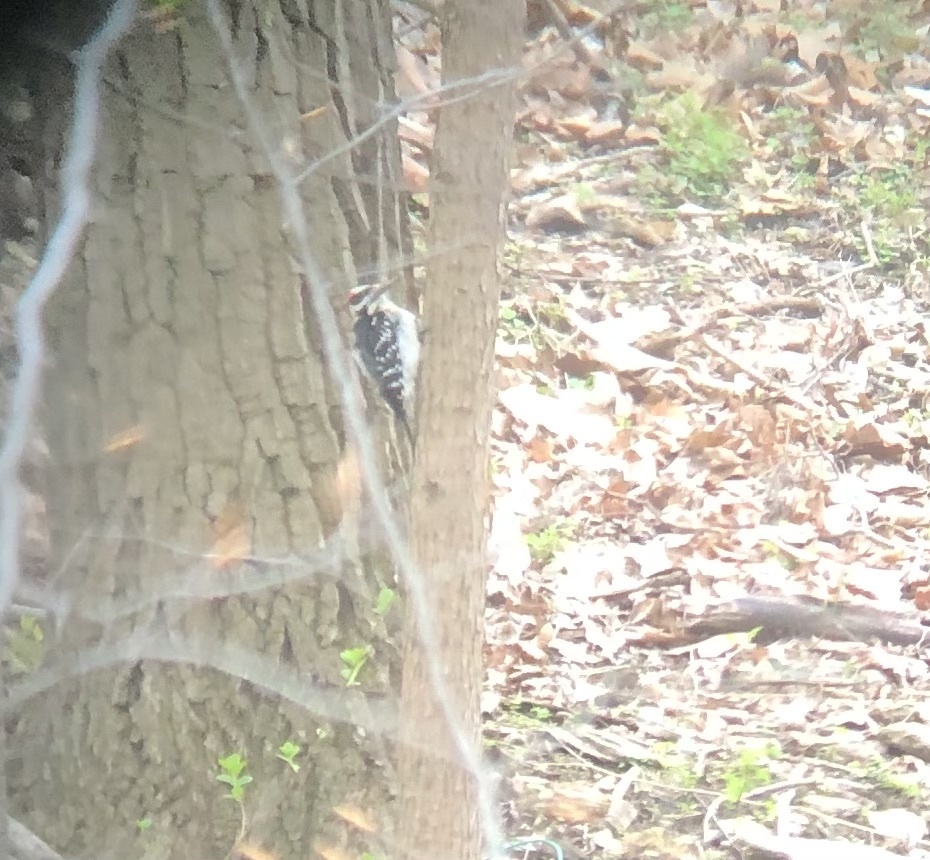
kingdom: Animalia
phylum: Chordata
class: Aves
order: Piciformes
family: Picidae
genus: Leuconotopicus
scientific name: Leuconotopicus villosus
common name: Hairy woodpecker
